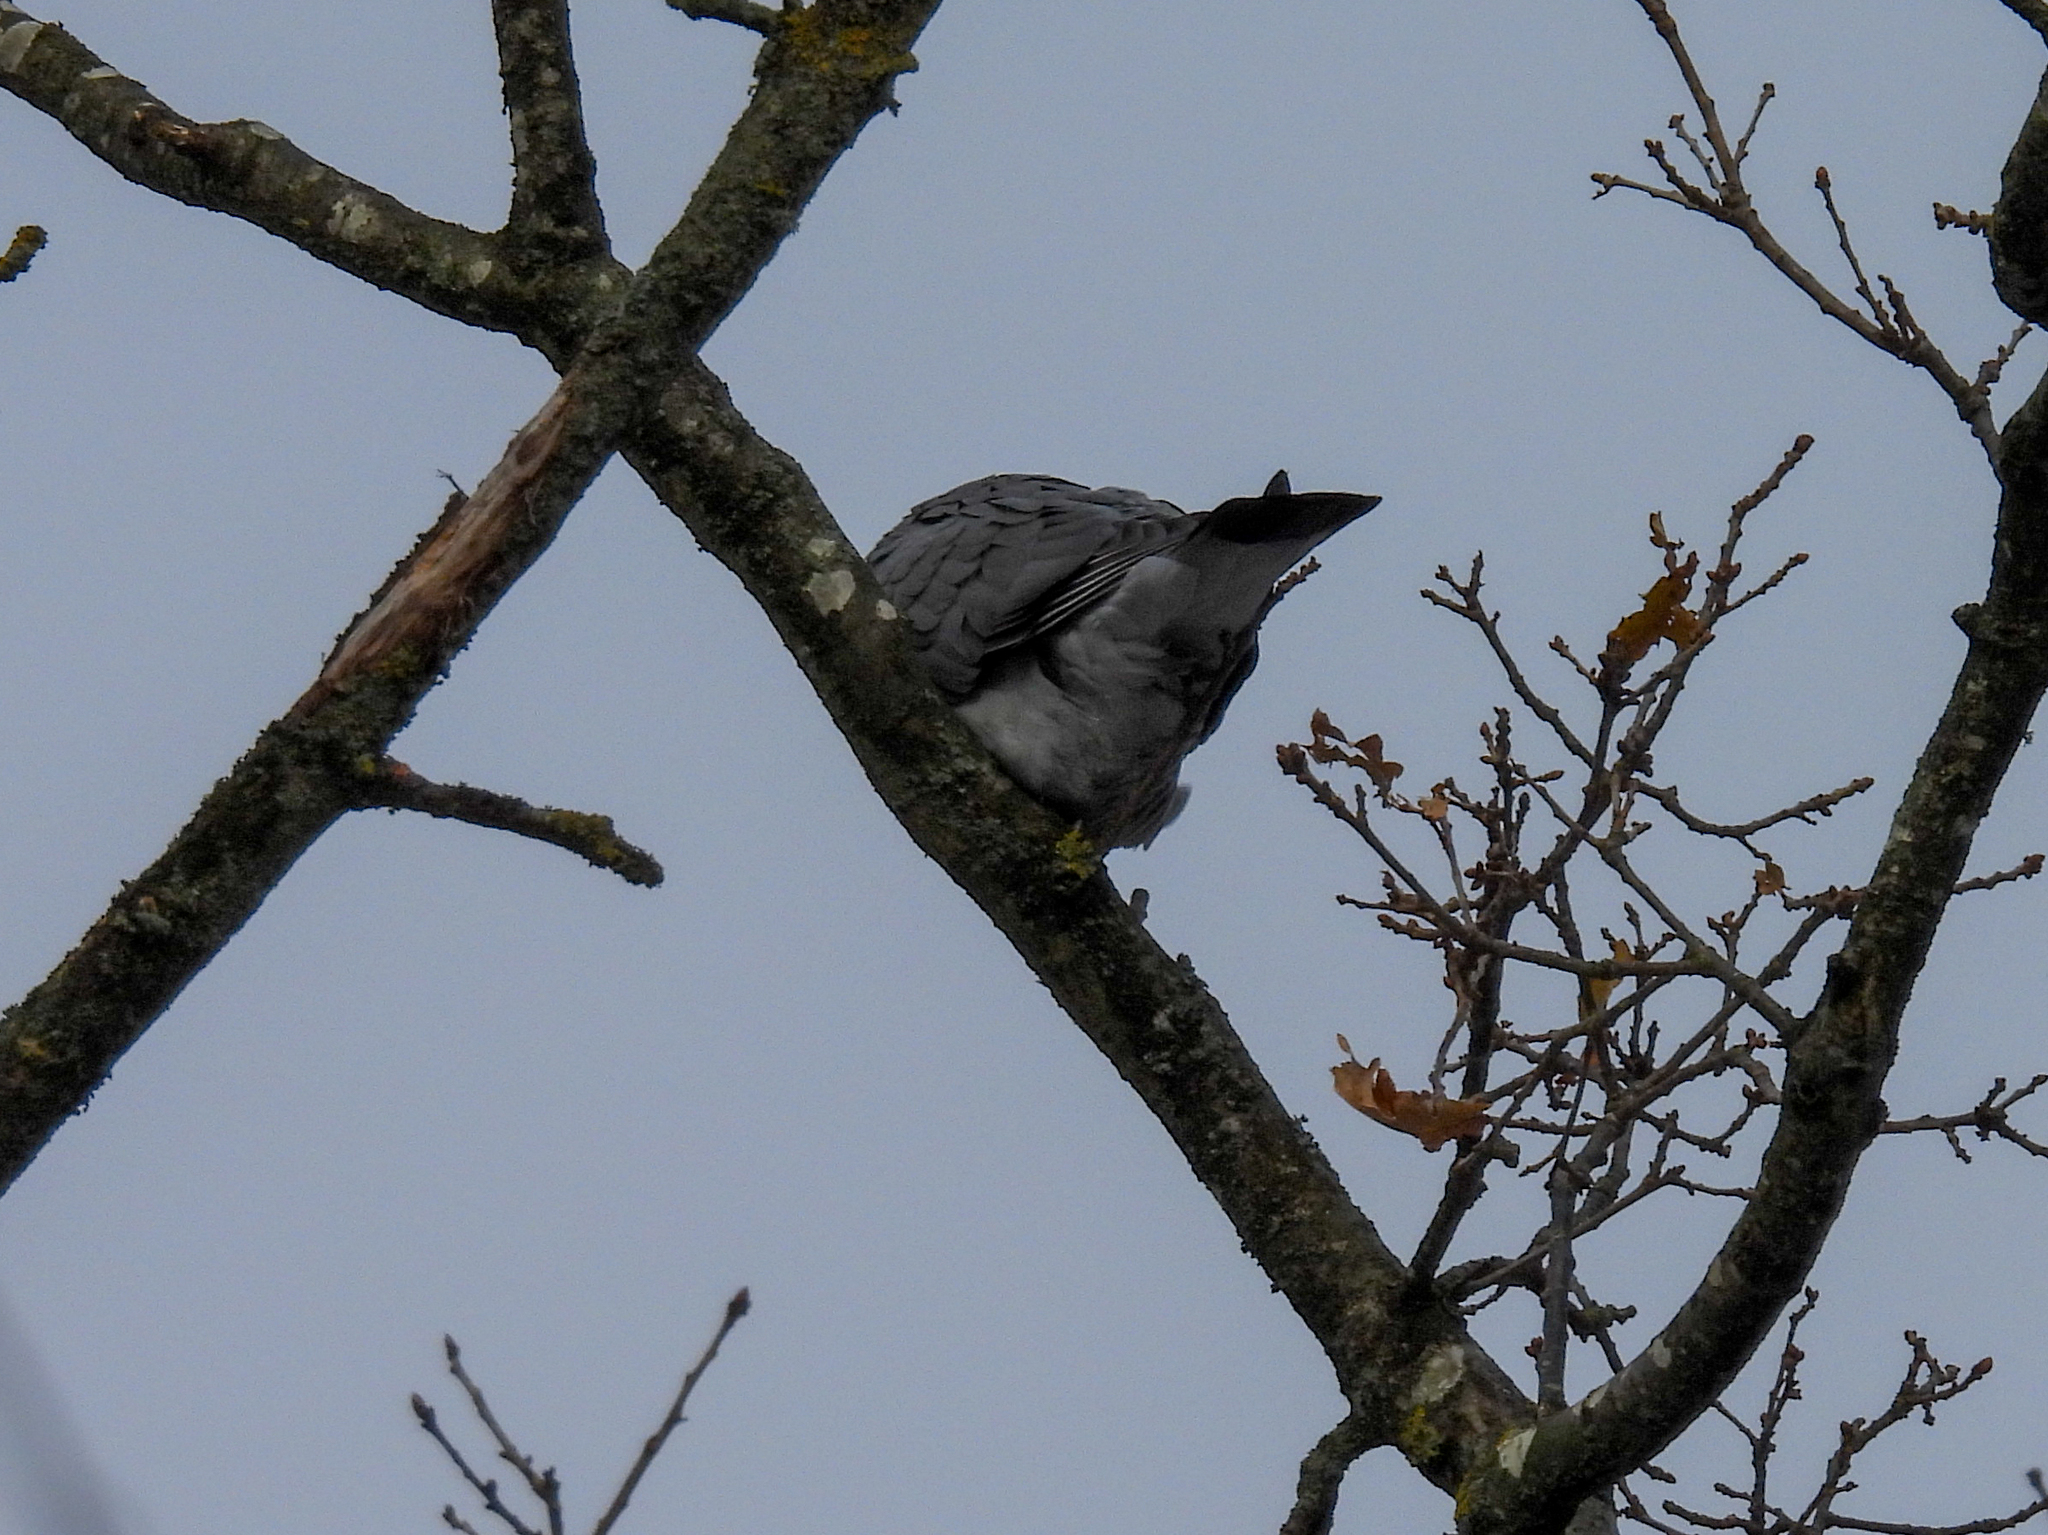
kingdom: Animalia
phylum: Chordata
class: Aves
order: Columbiformes
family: Columbidae
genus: Columba
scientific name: Columba palumbus
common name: Common wood pigeon
